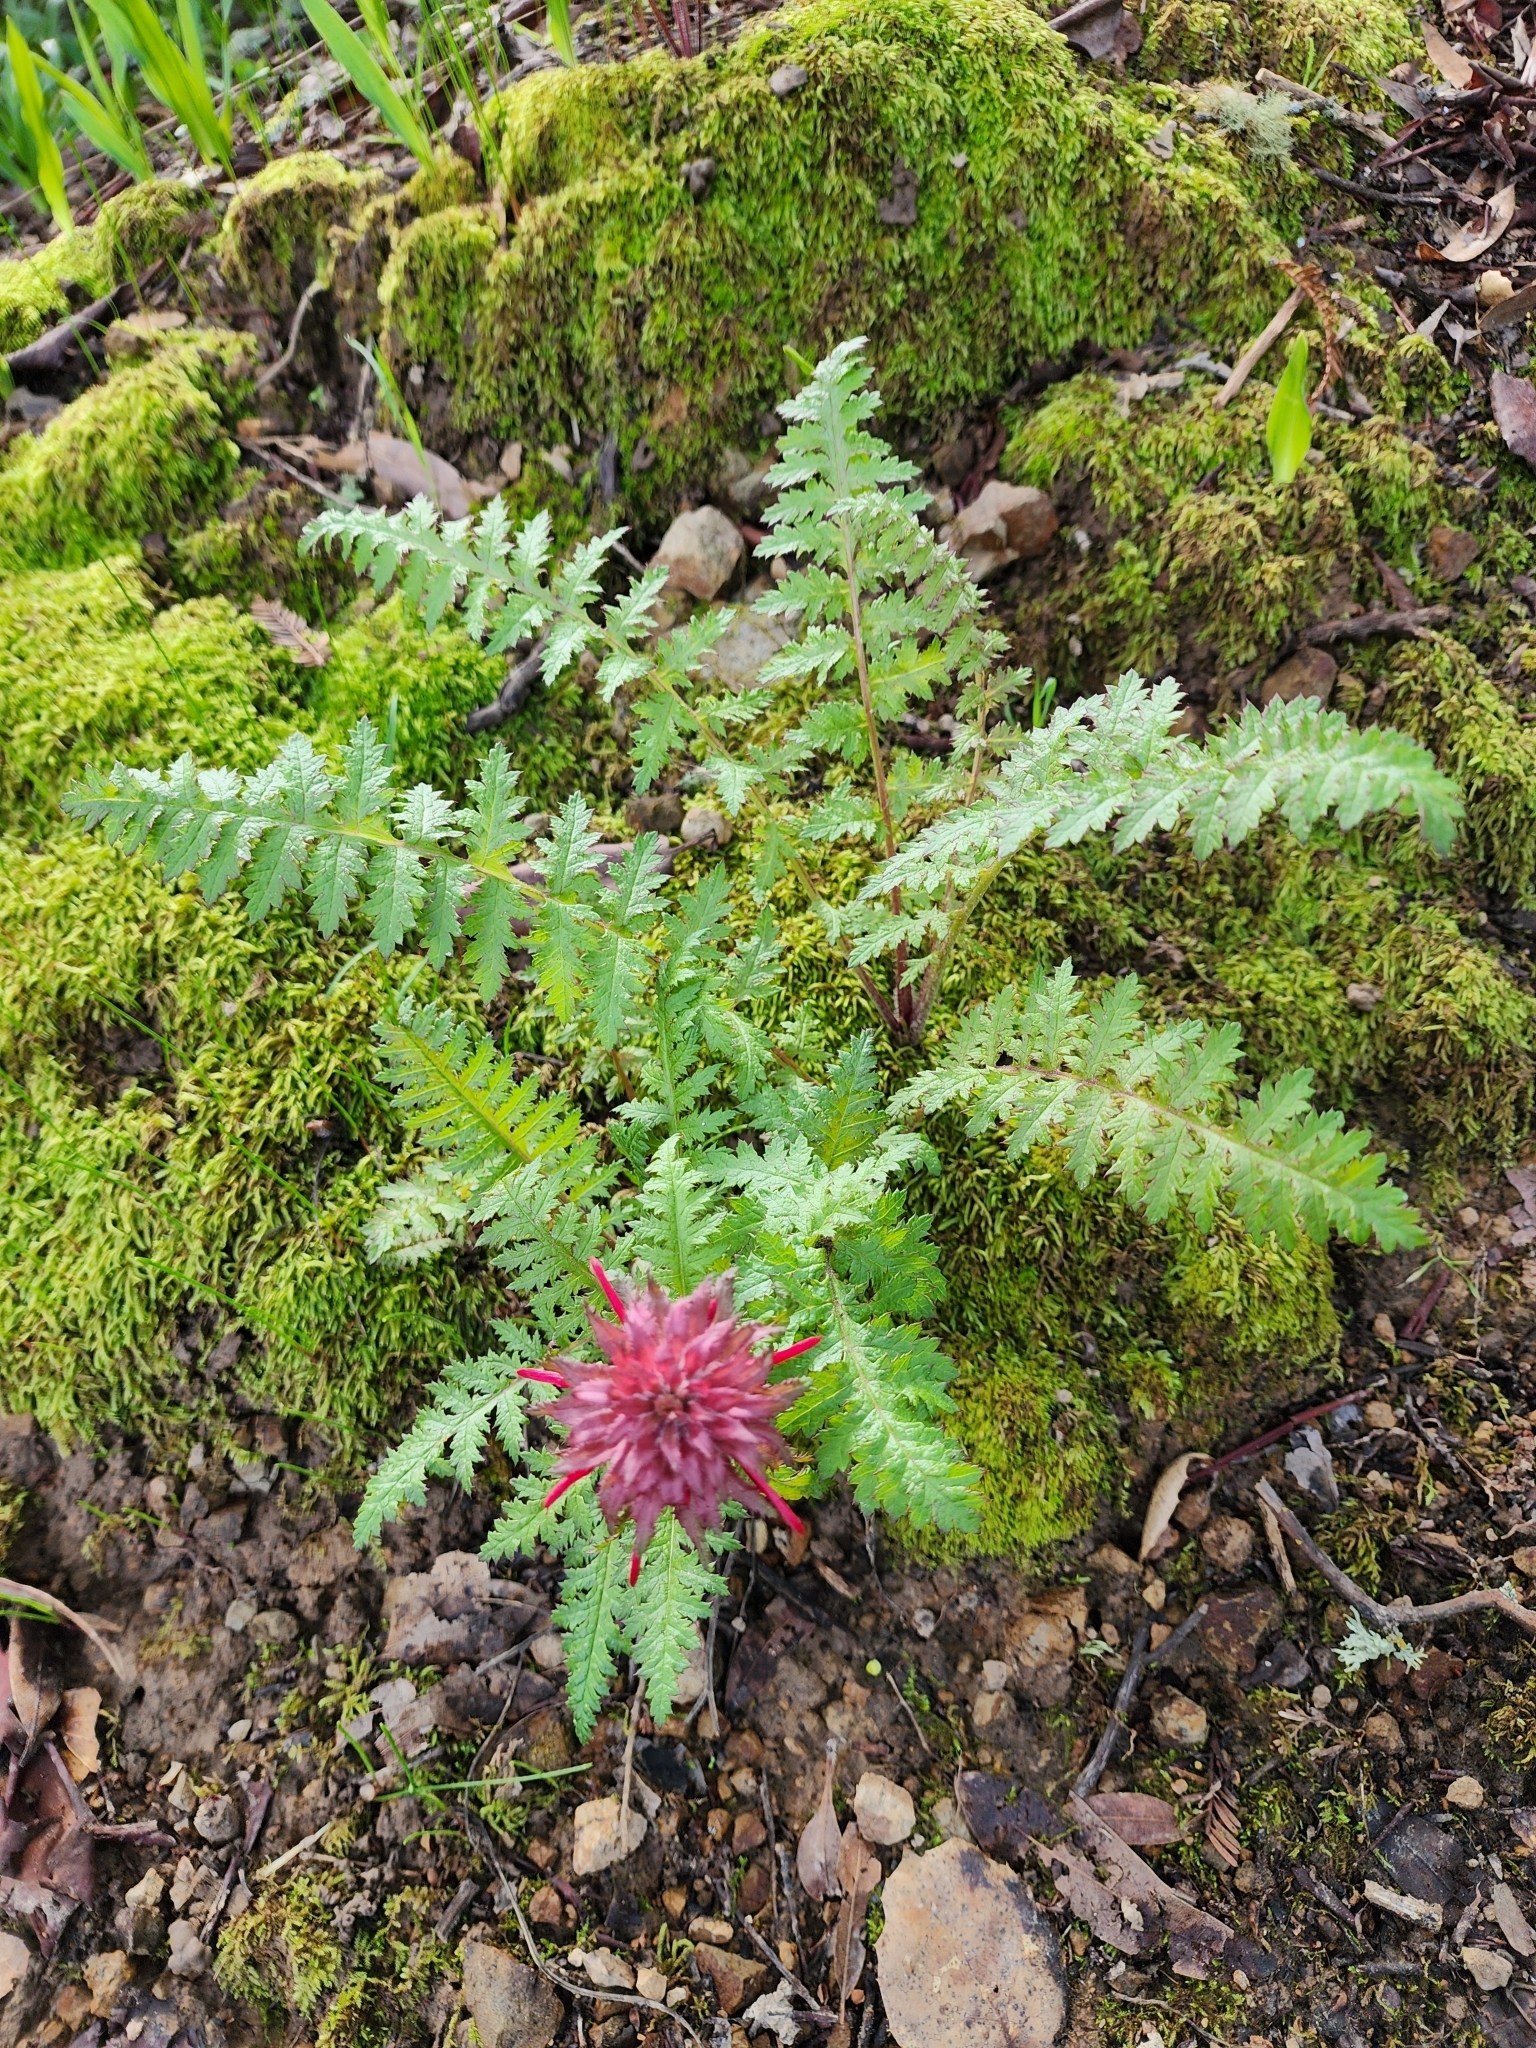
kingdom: Plantae
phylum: Tracheophyta
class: Magnoliopsida
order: Lamiales
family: Orobanchaceae
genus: Pedicularis
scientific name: Pedicularis densiflora
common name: Indian warrior
